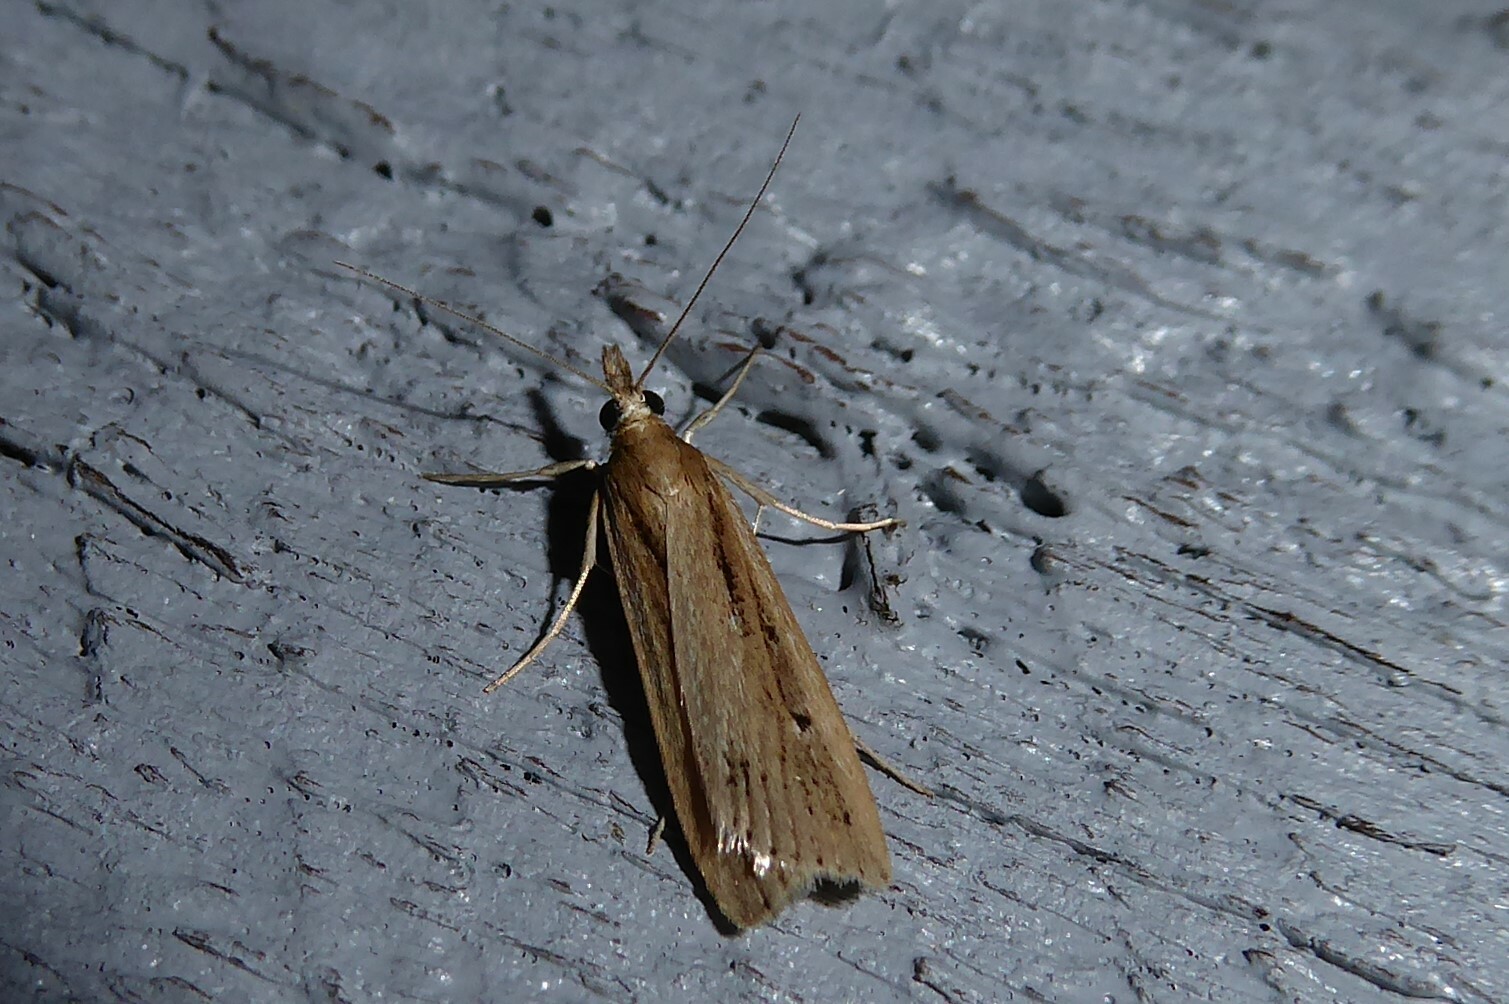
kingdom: Animalia
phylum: Arthropoda
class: Insecta
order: Lepidoptera
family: Crambidae
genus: Eudonia
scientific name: Eudonia sabulosella
